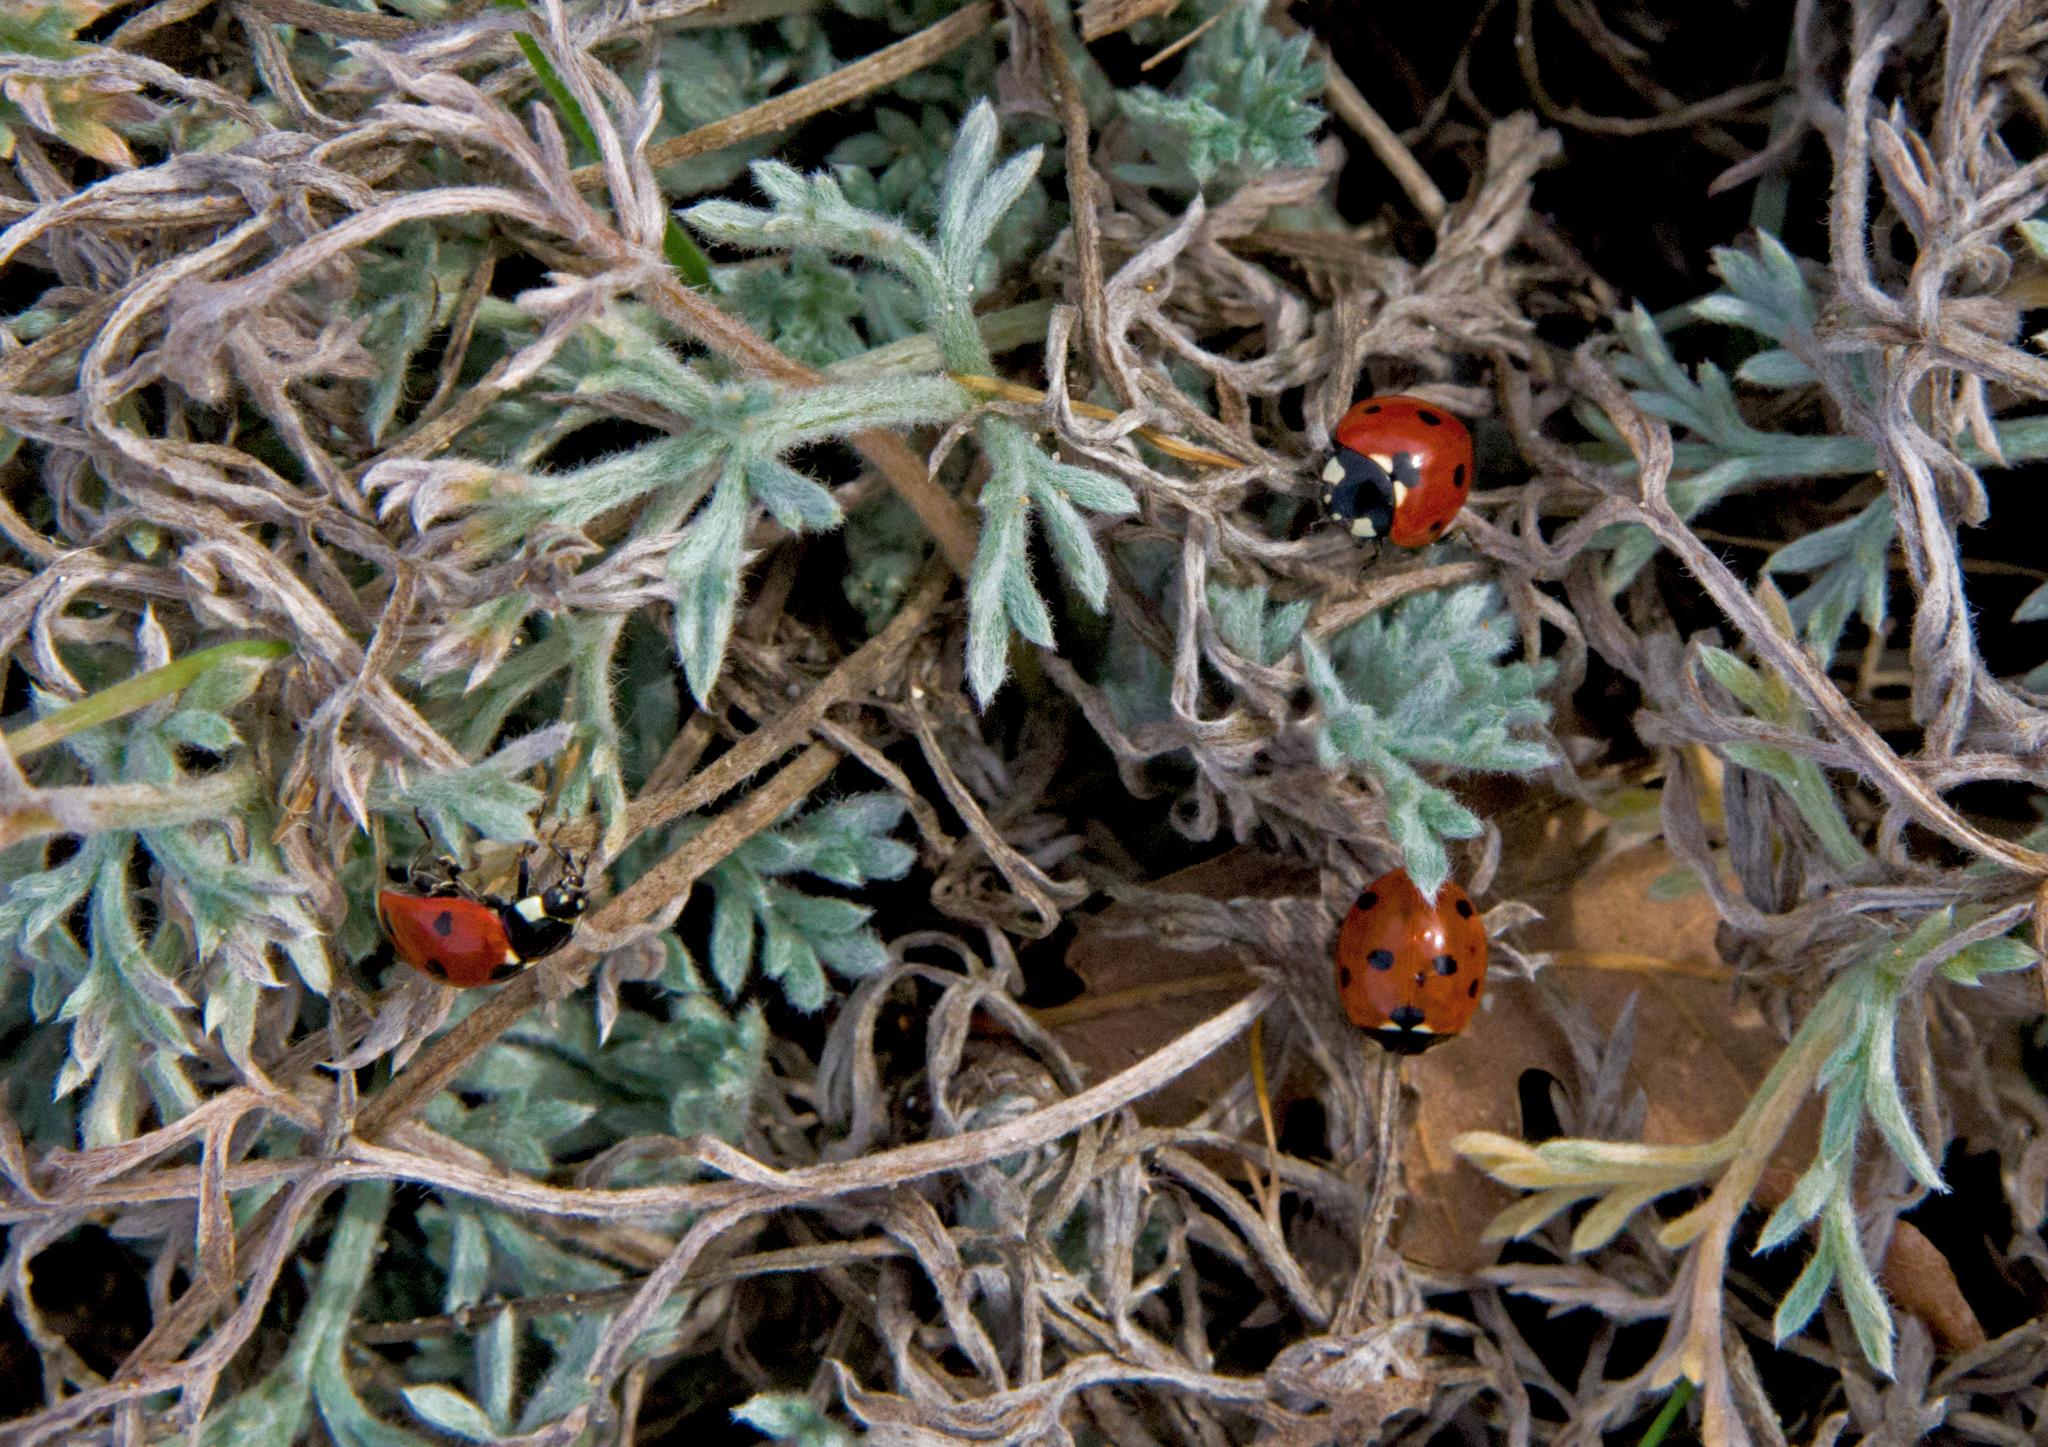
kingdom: Animalia
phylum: Arthropoda
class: Insecta
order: Coleoptera
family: Coccinellidae
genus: Coccinella
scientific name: Coccinella septempunctata
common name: Sevenspotted lady beetle
